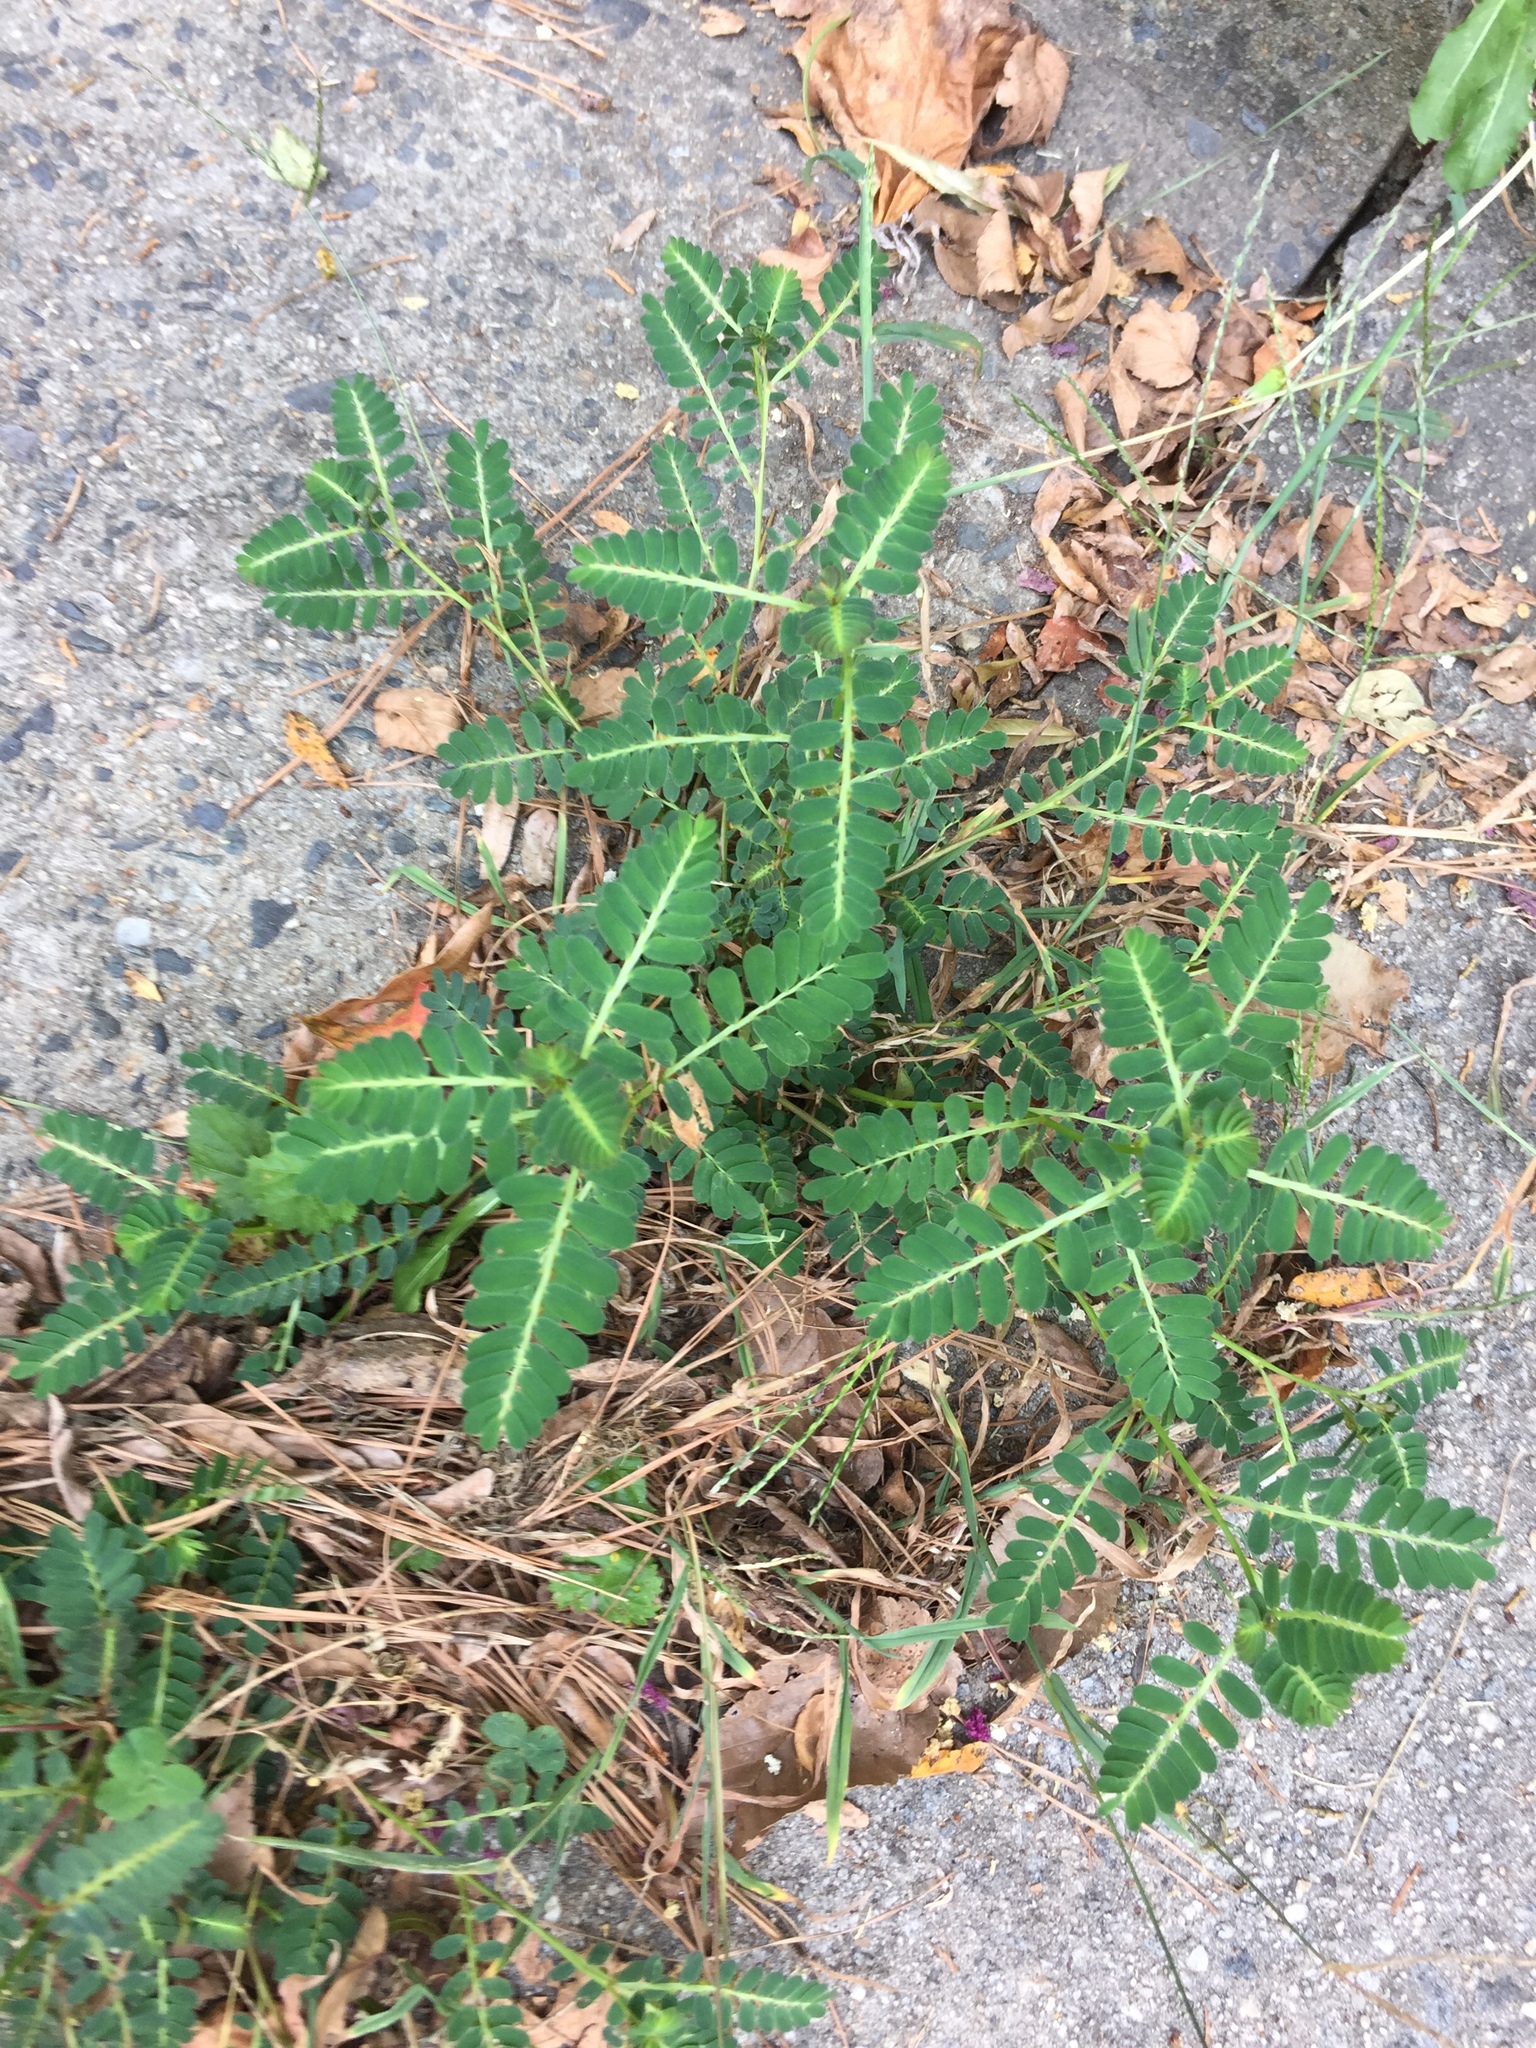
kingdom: Plantae
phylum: Tracheophyta
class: Magnoliopsida
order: Malpighiales
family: Phyllanthaceae
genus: Phyllanthus
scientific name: Phyllanthus urinaria
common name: Chamber bitter
